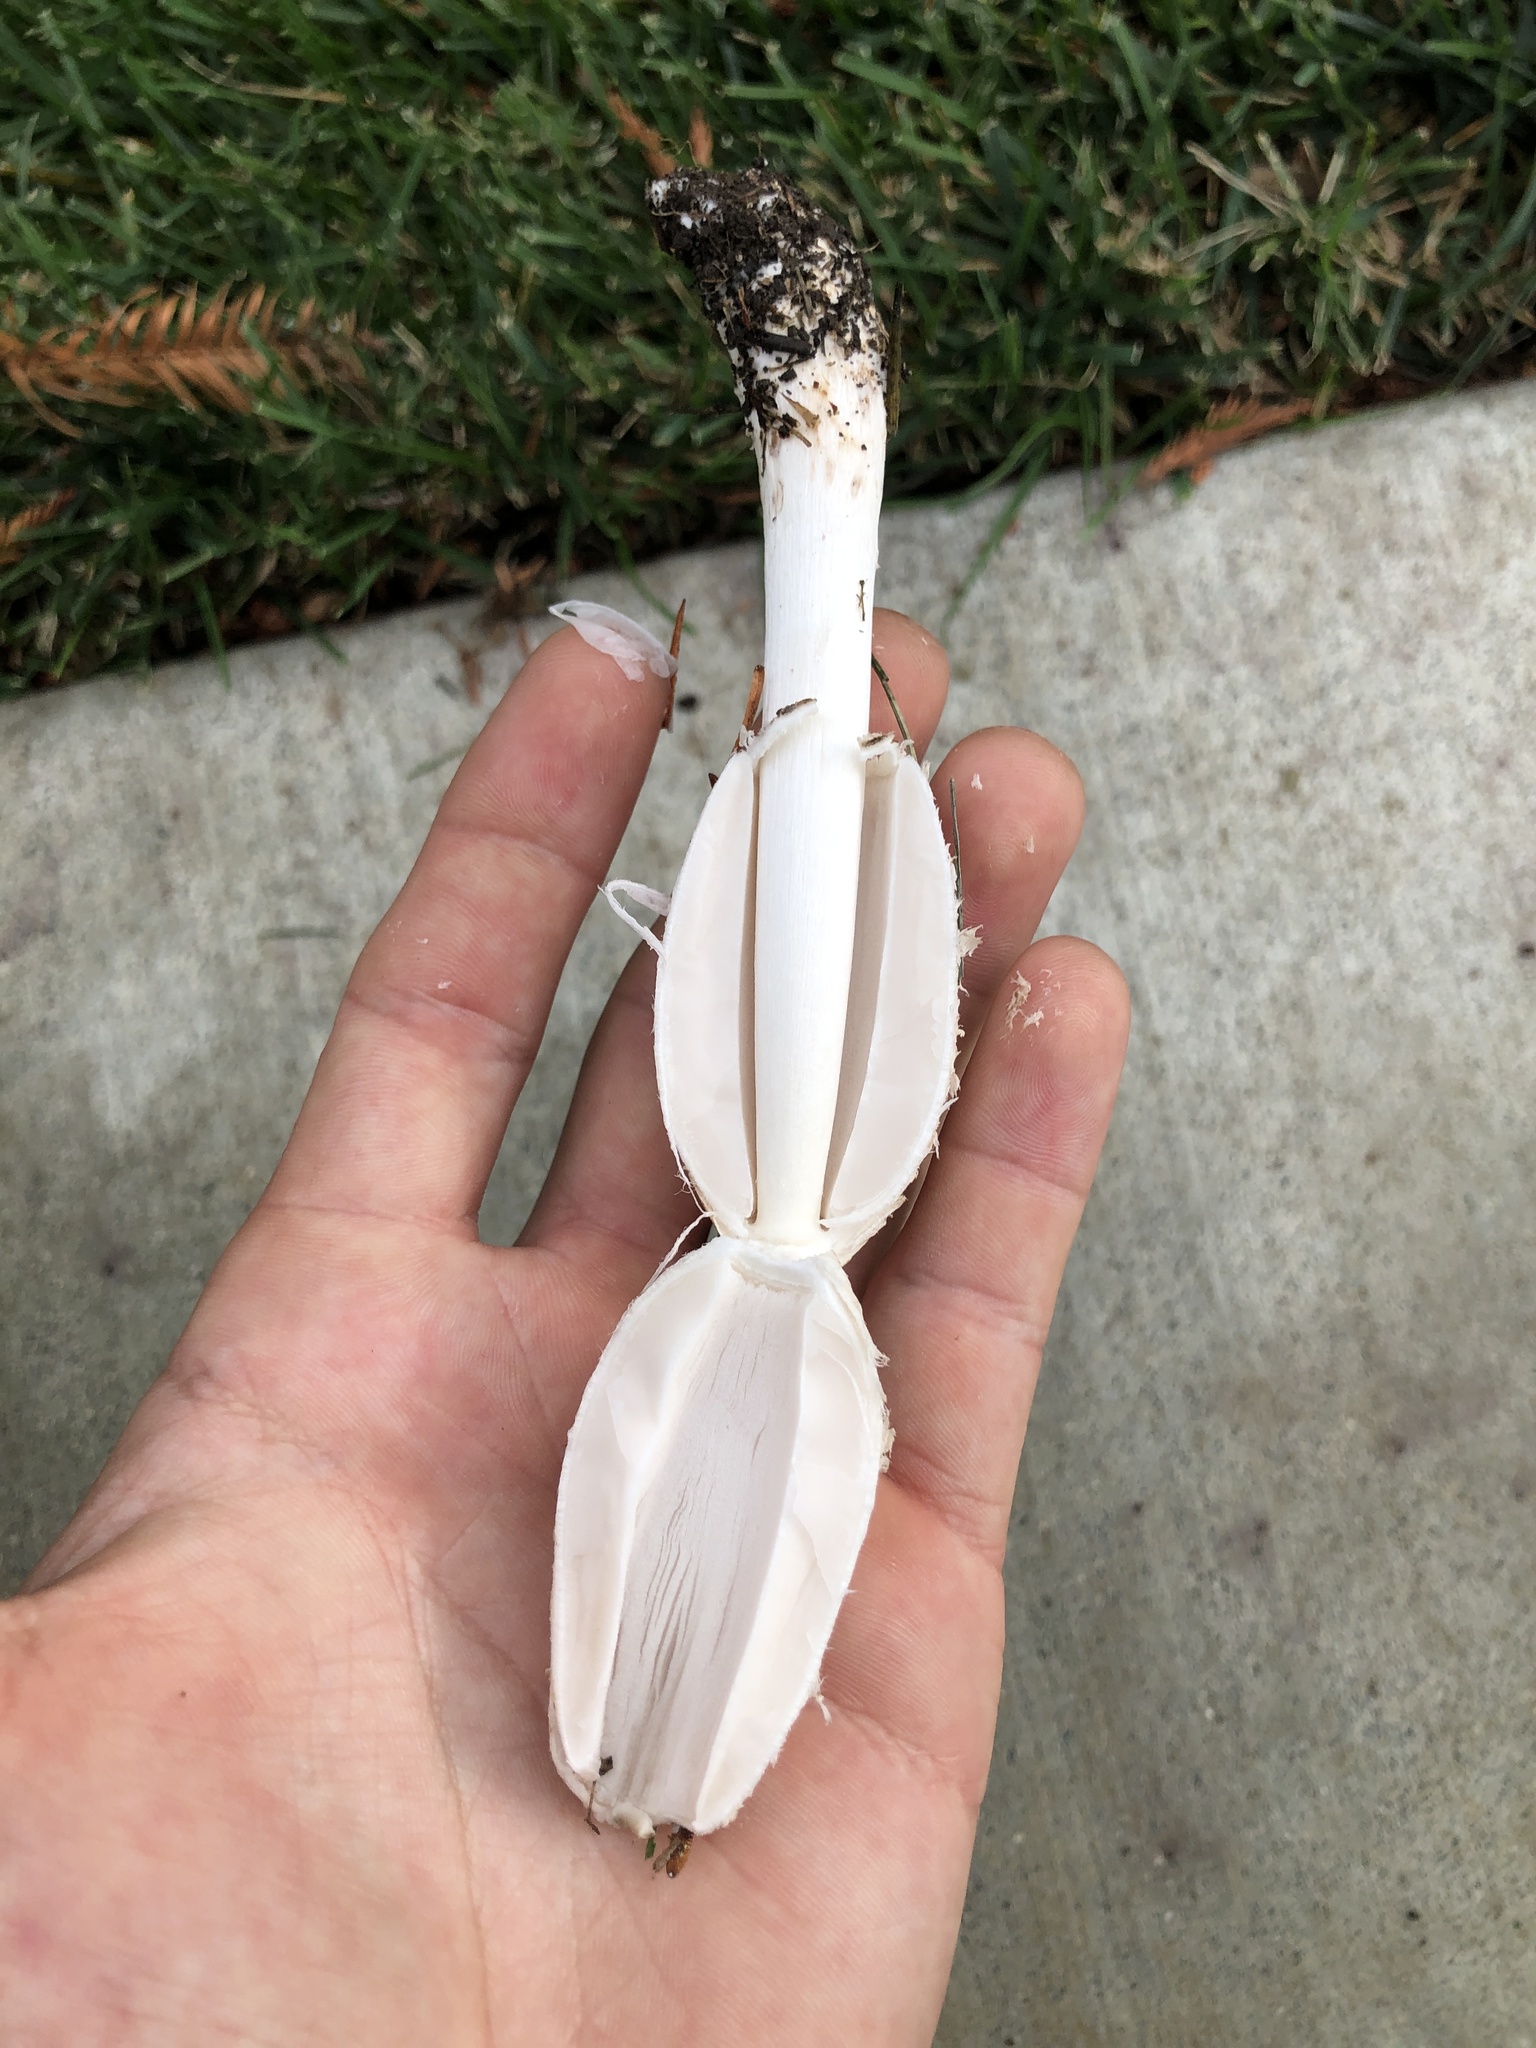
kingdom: Fungi
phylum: Basidiomycota
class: Agaricomycetes
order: Agaricales
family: Agaricaceae
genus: Coprinus
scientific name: Coprinus comatus
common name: Lawyer's wig
